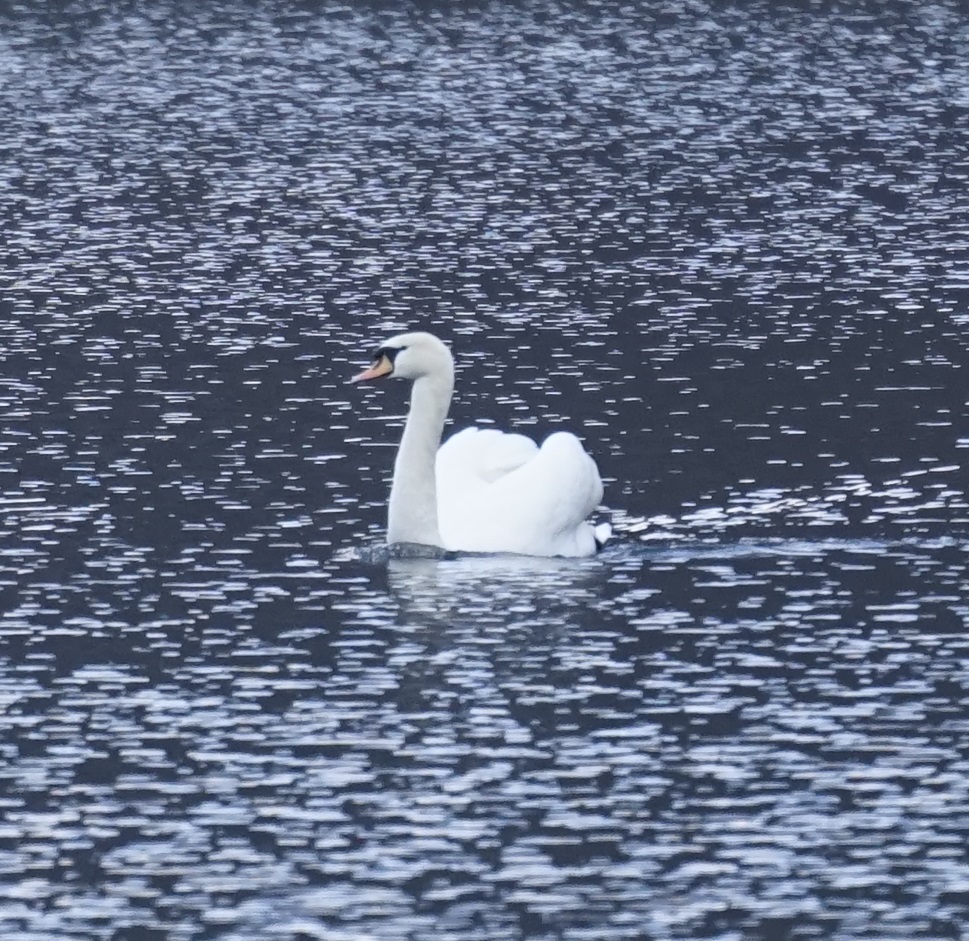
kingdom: Animalia
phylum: Chordata
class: Aves
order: Anseriformes
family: Anatidae
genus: Cygnus
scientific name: Cygnus olor
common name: Mute swan
